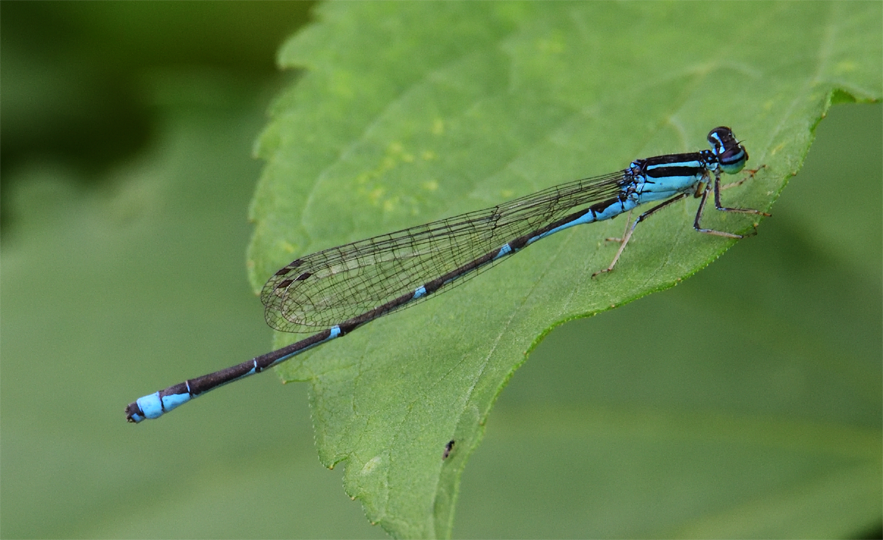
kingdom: Animalia
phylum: Arthropoda
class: Insecta
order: Odonata
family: Coenagrionidae
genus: Enallagma
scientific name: Enallagma exsulans
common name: Stream bluet
